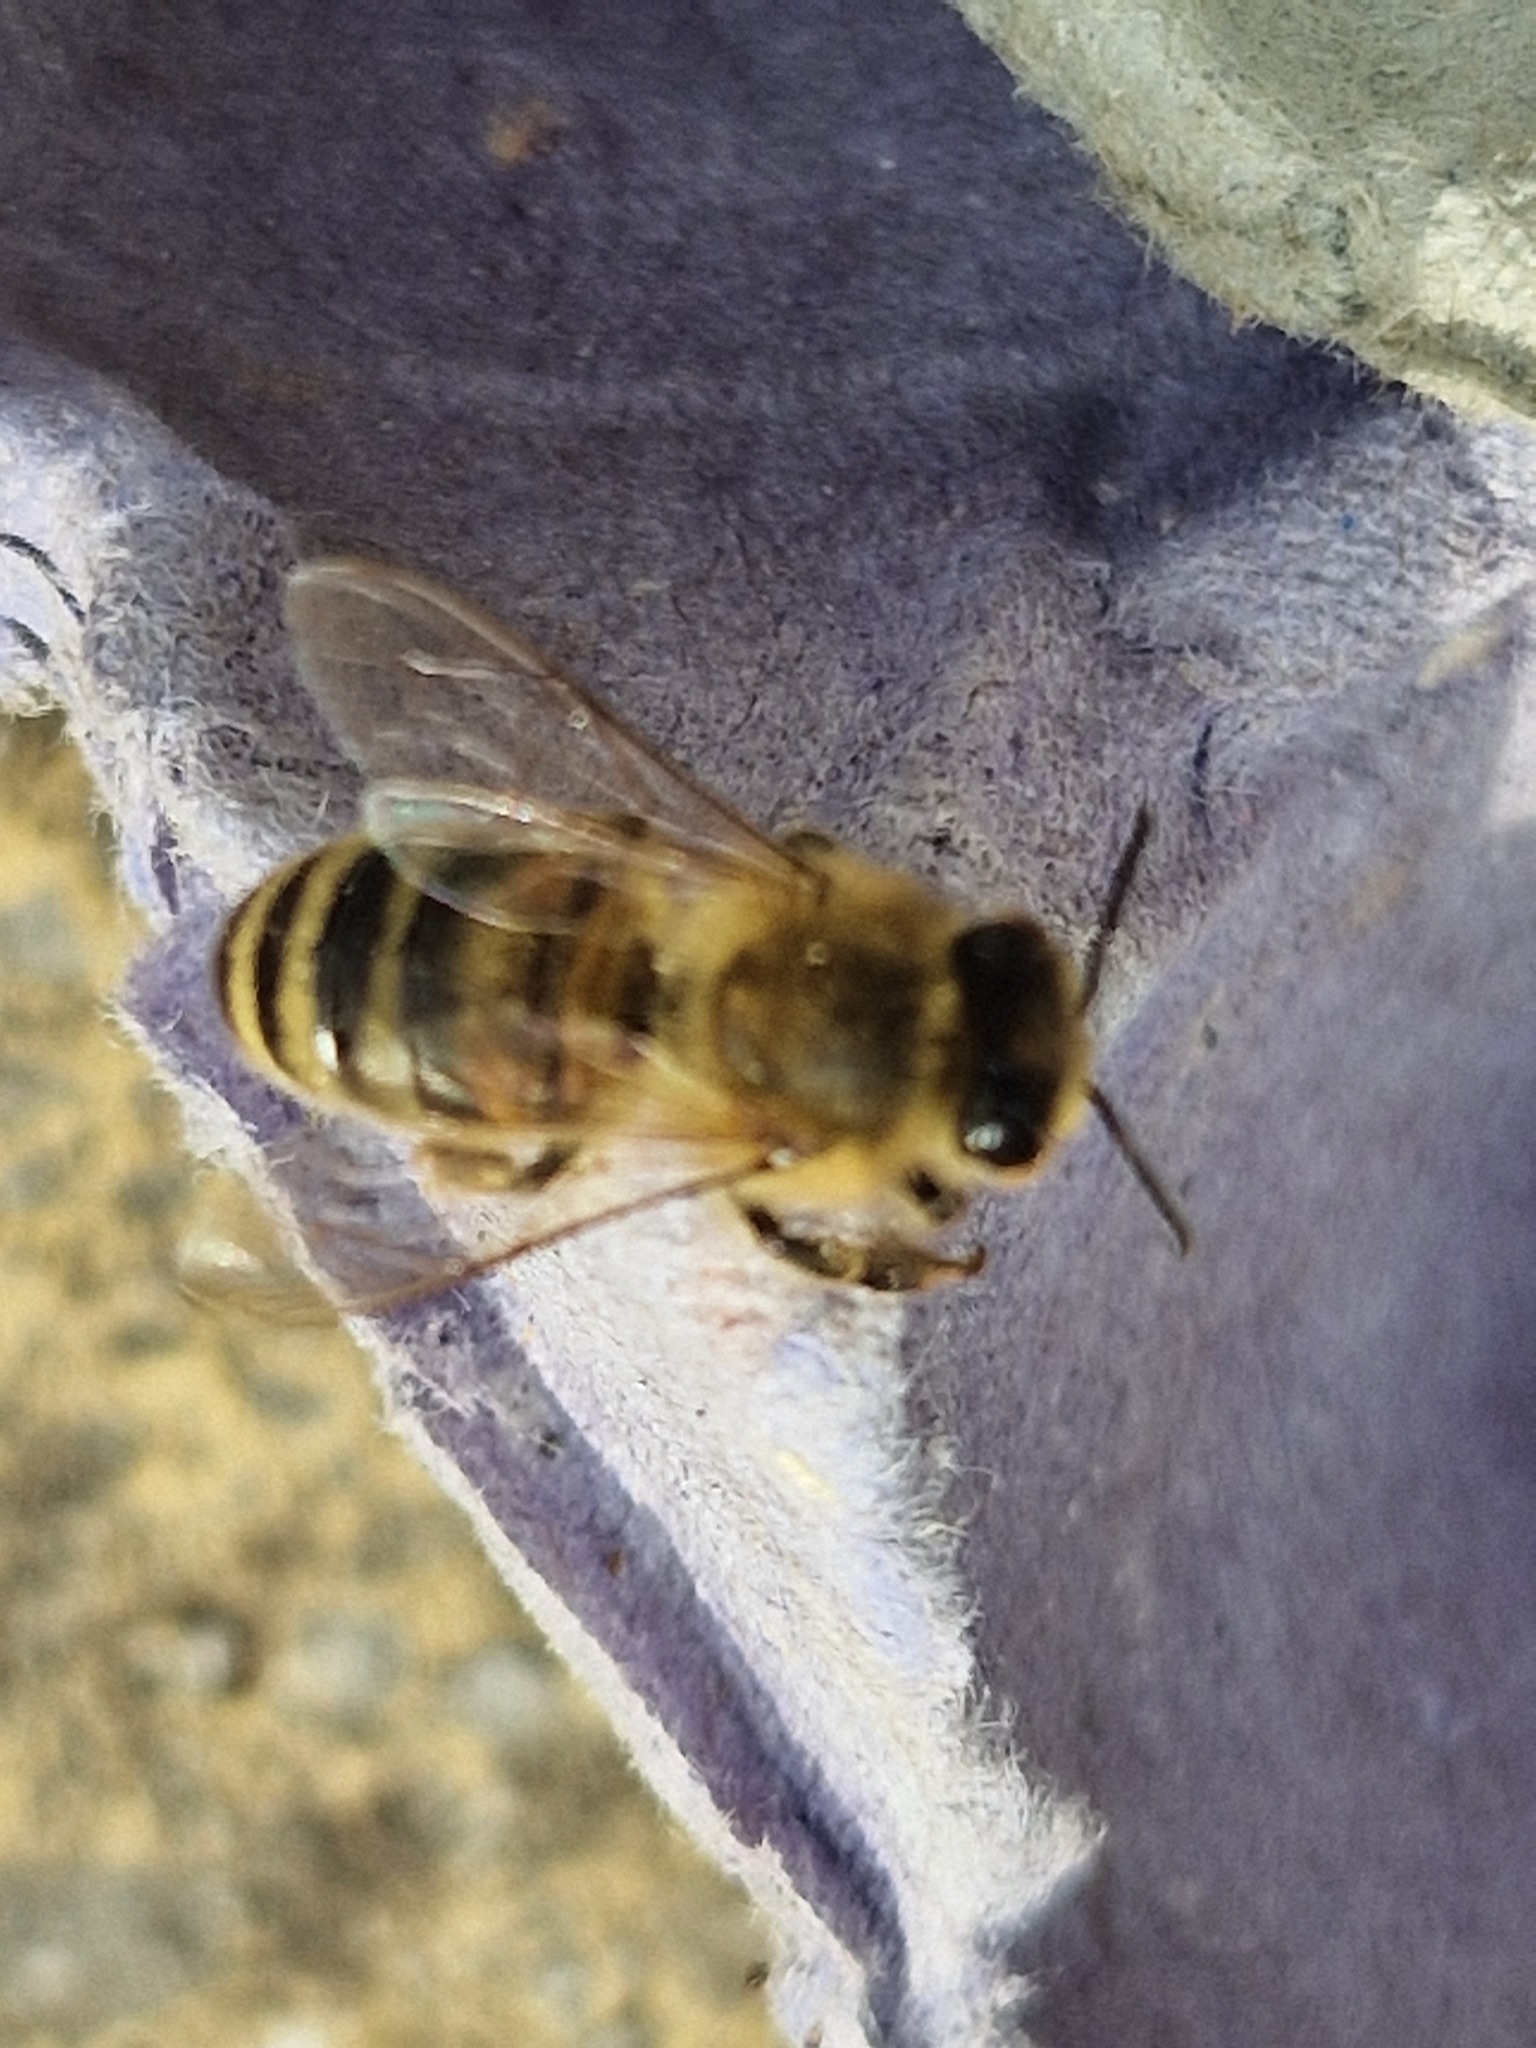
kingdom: Animalia
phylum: Arthropoda
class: Insecta
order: Hymenoptera
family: Apidae
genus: Apis
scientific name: Apis mellifera
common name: Honey bee
